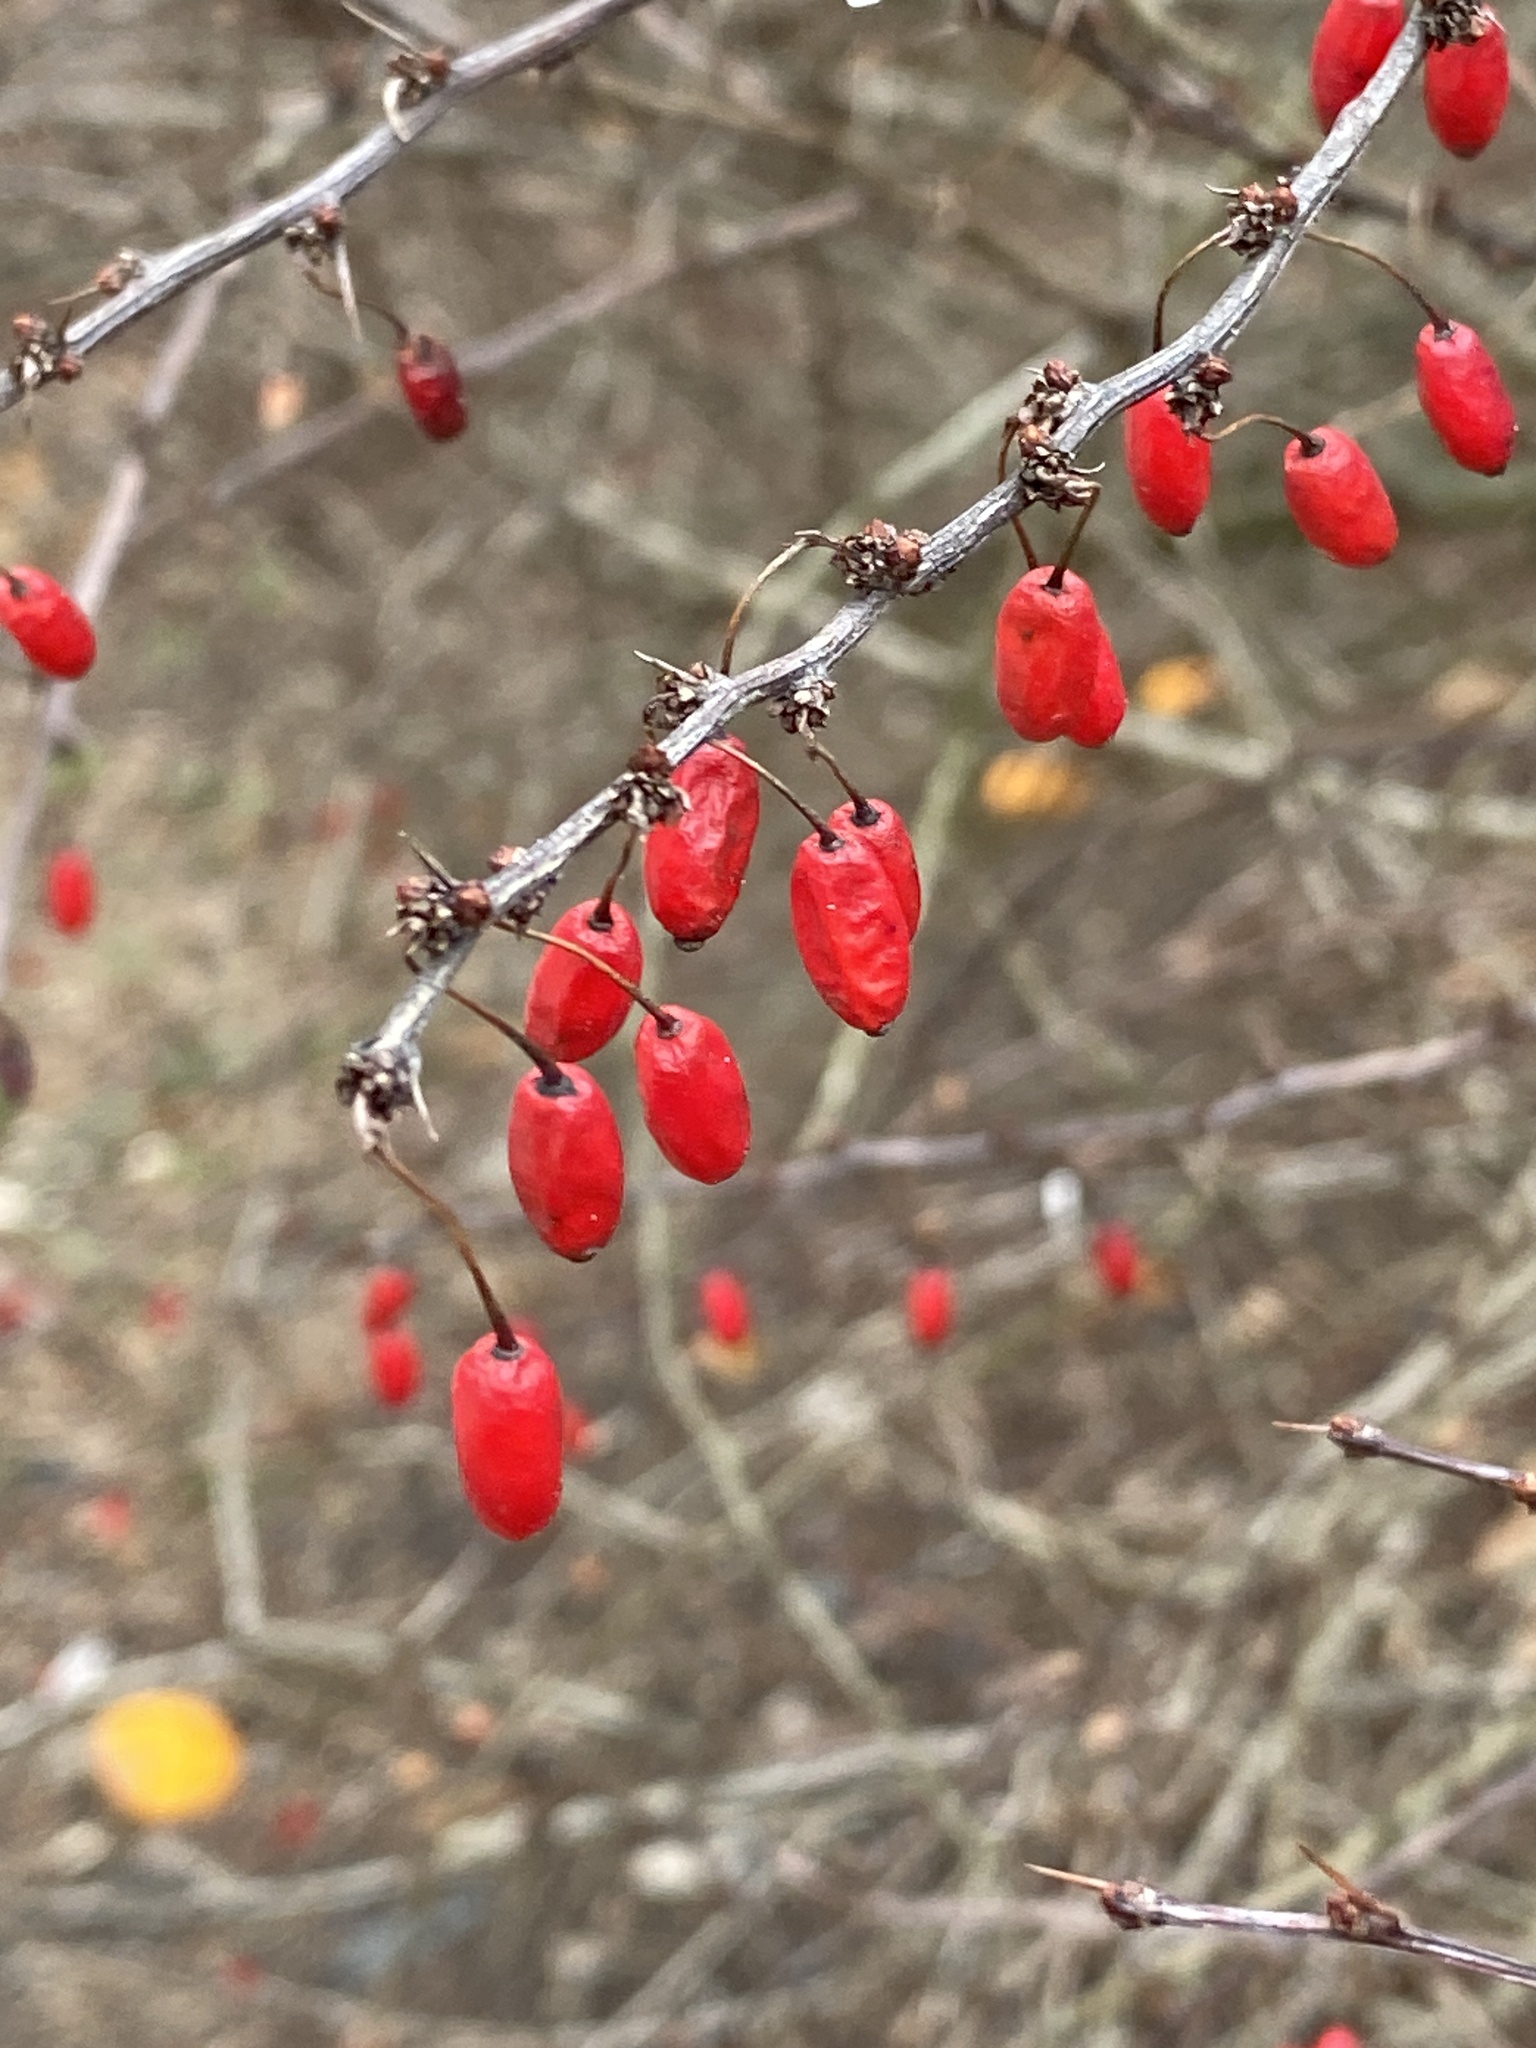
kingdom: Plantae
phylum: Tracheophyta
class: Magnoliopsida
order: Ranunculales
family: Berberidaceae
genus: Berberis
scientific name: Berberis thunbergii
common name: Japanese barberry
